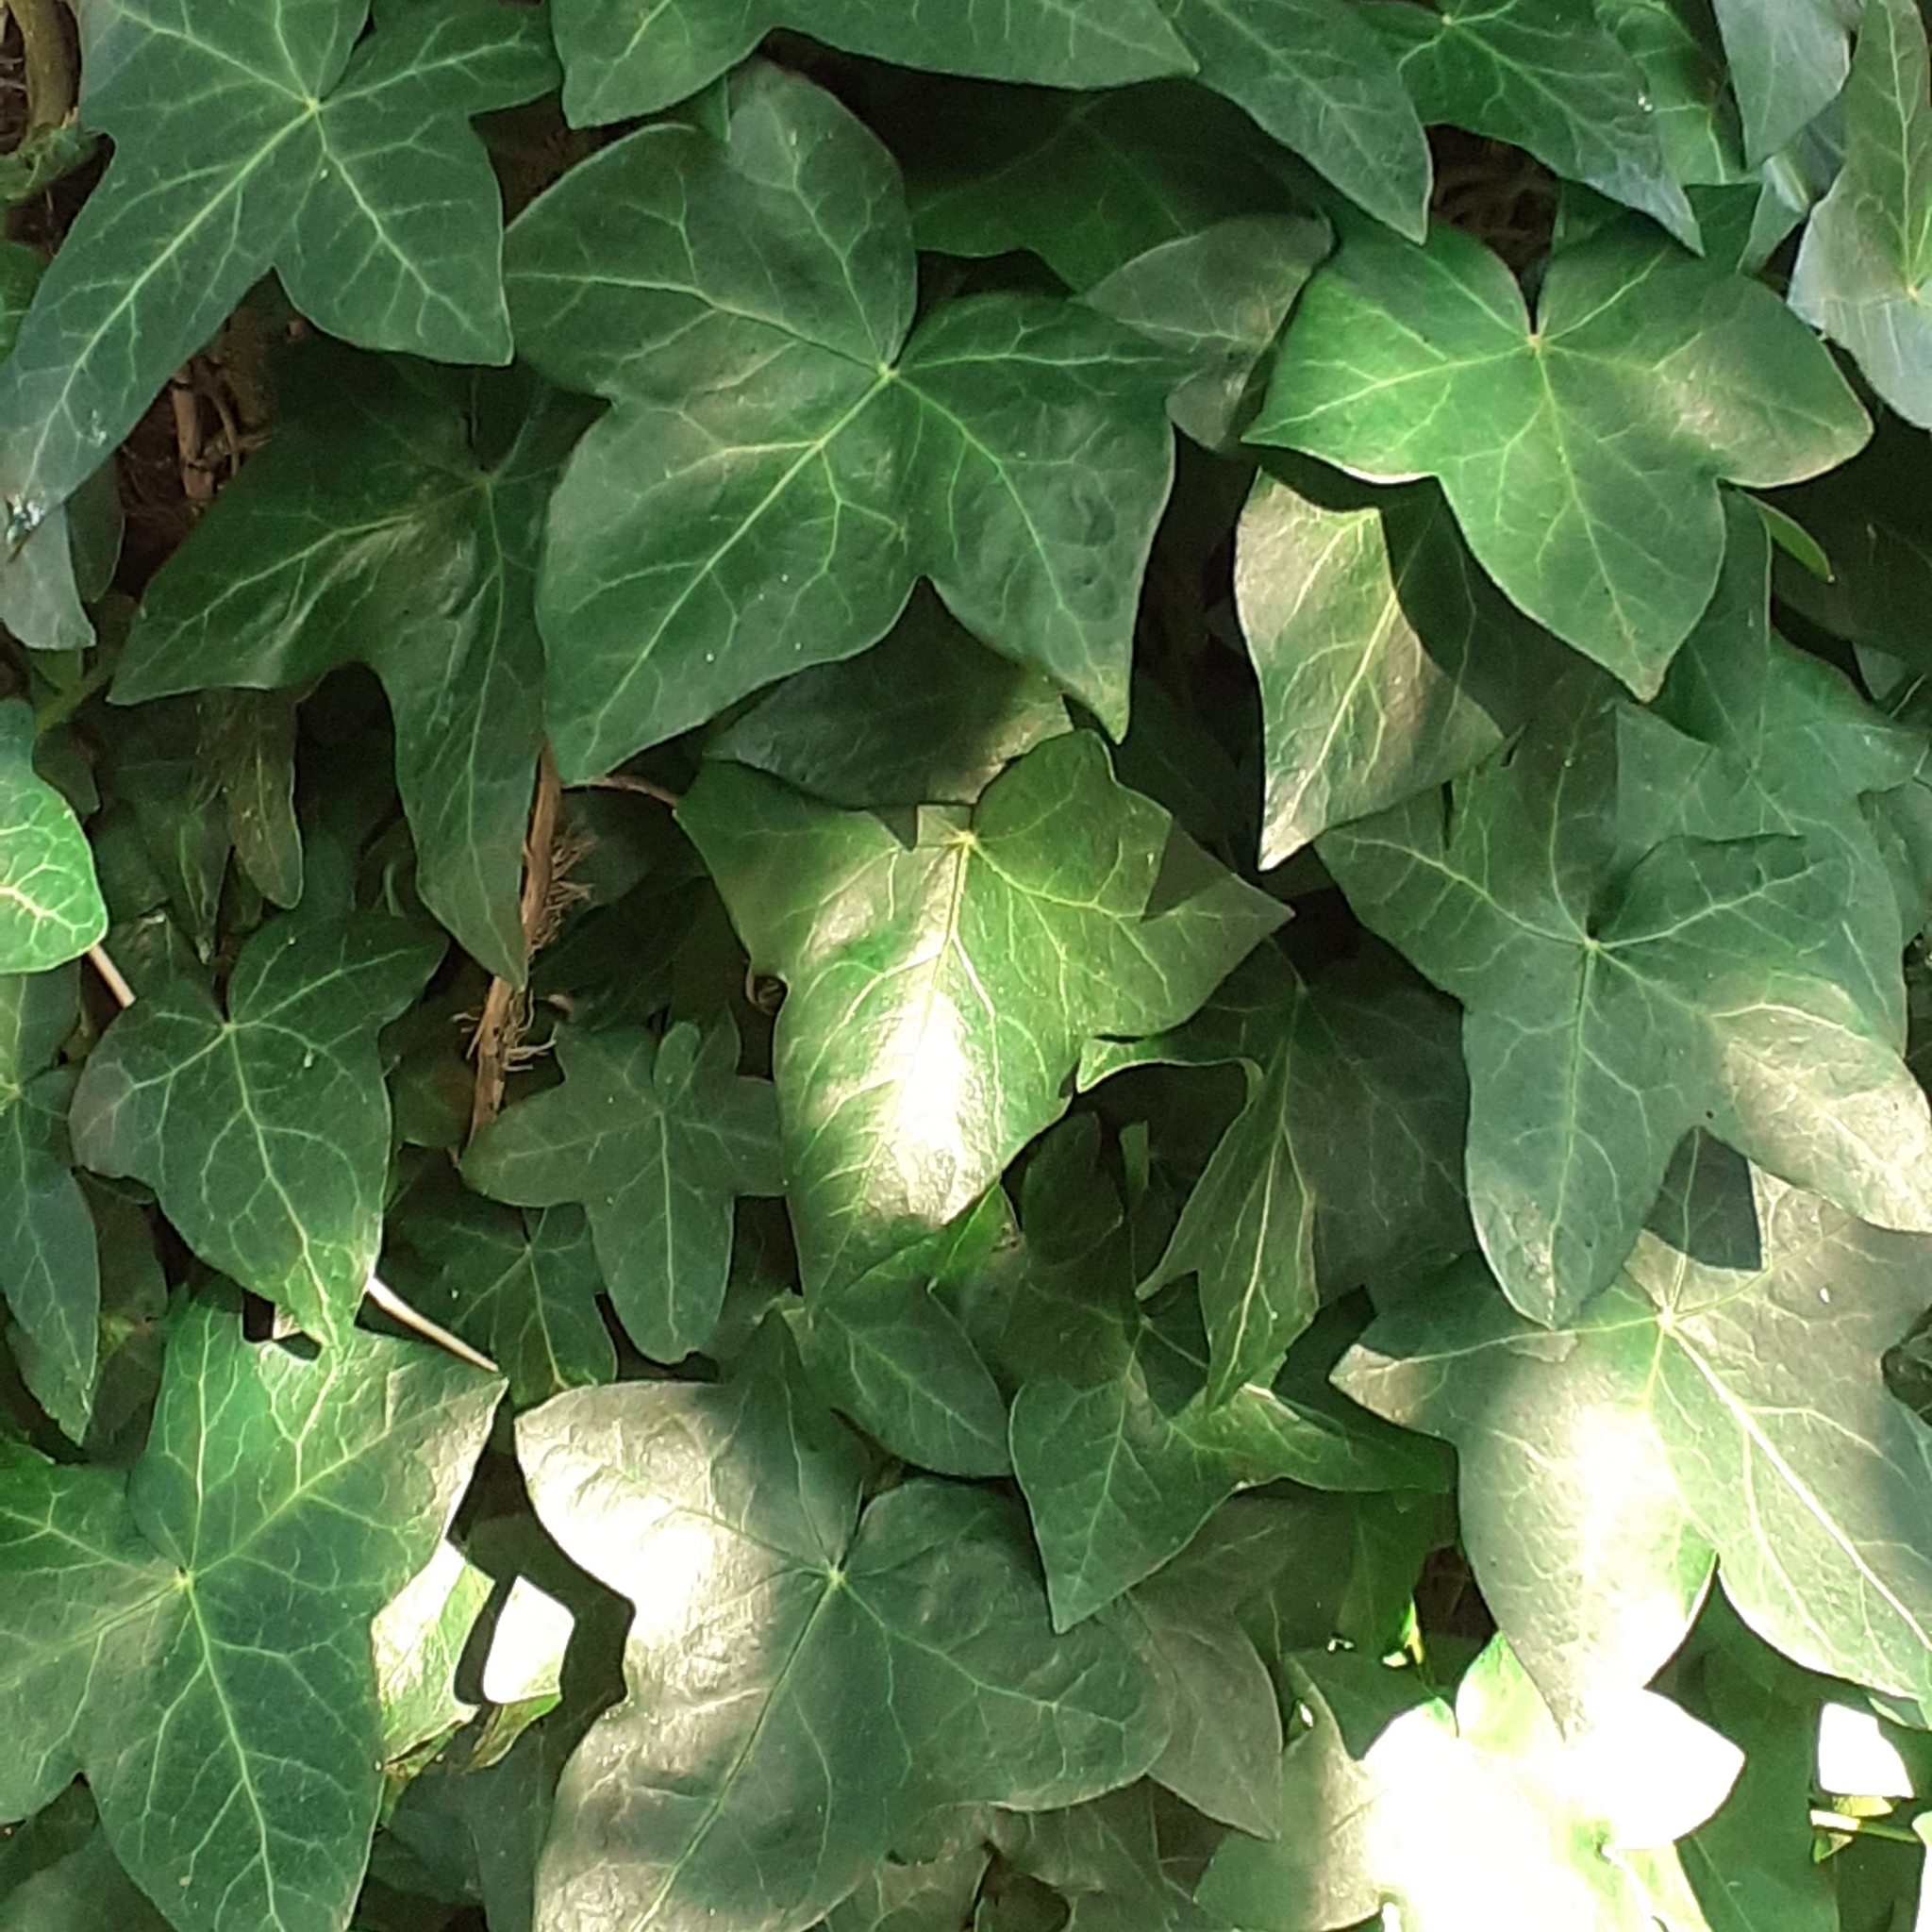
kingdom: Plantae
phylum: Tracheophyta
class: Magnoliopsida
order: Apiales
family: Araliaceae
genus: Hedera
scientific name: Hedera helix
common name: Ivy
